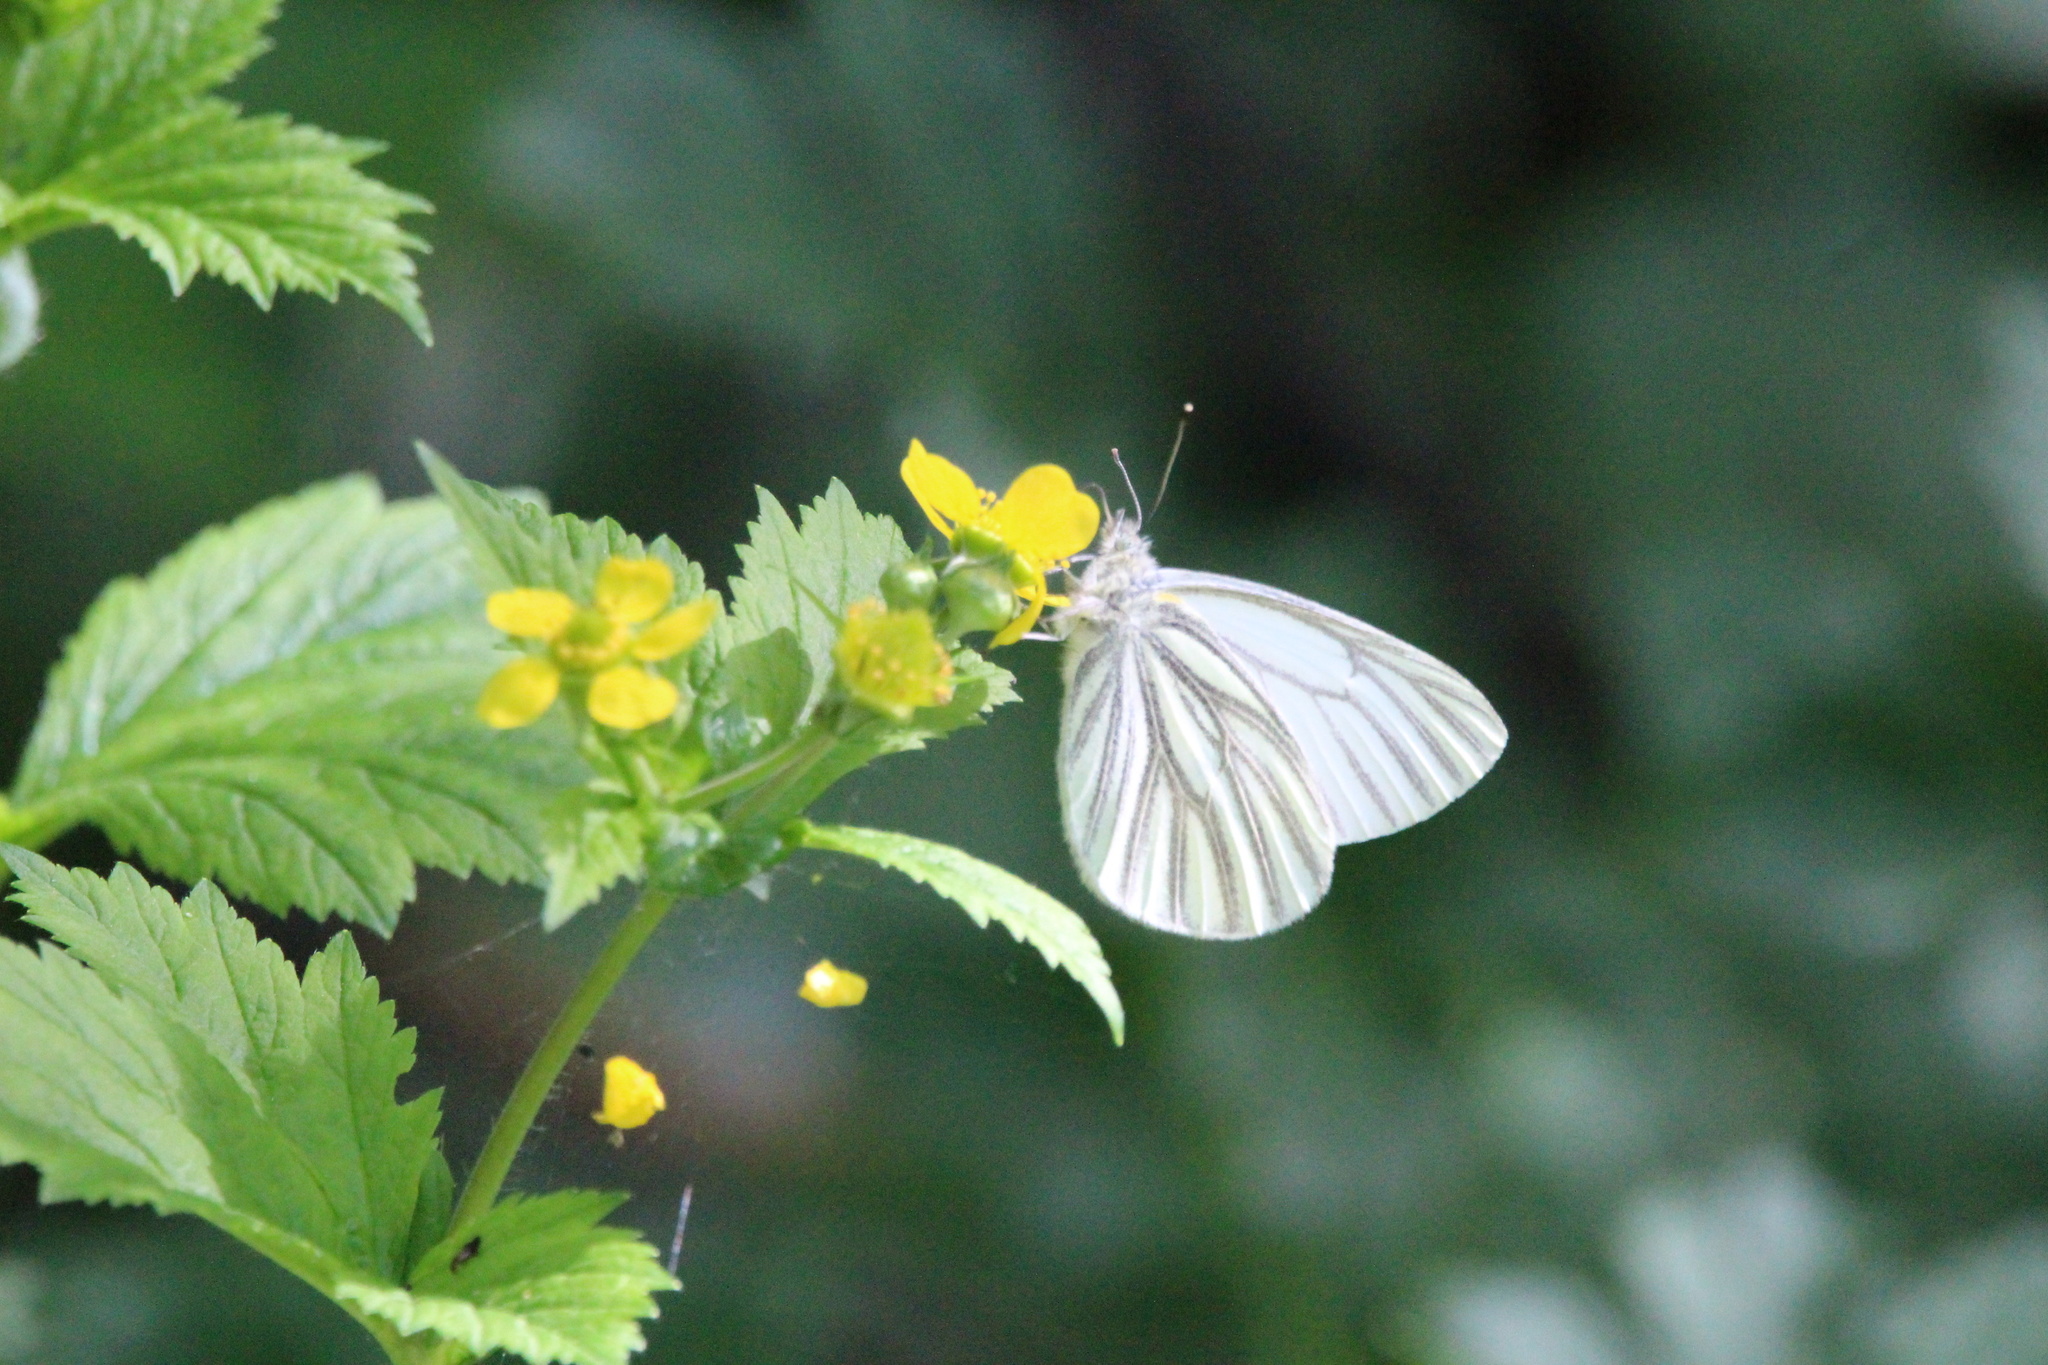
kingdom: Animalia
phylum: Arthropoda
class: Insecta
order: Lepidoptera
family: Pieridae
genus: Pieris
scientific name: Pieris marginalis
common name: Margined white
